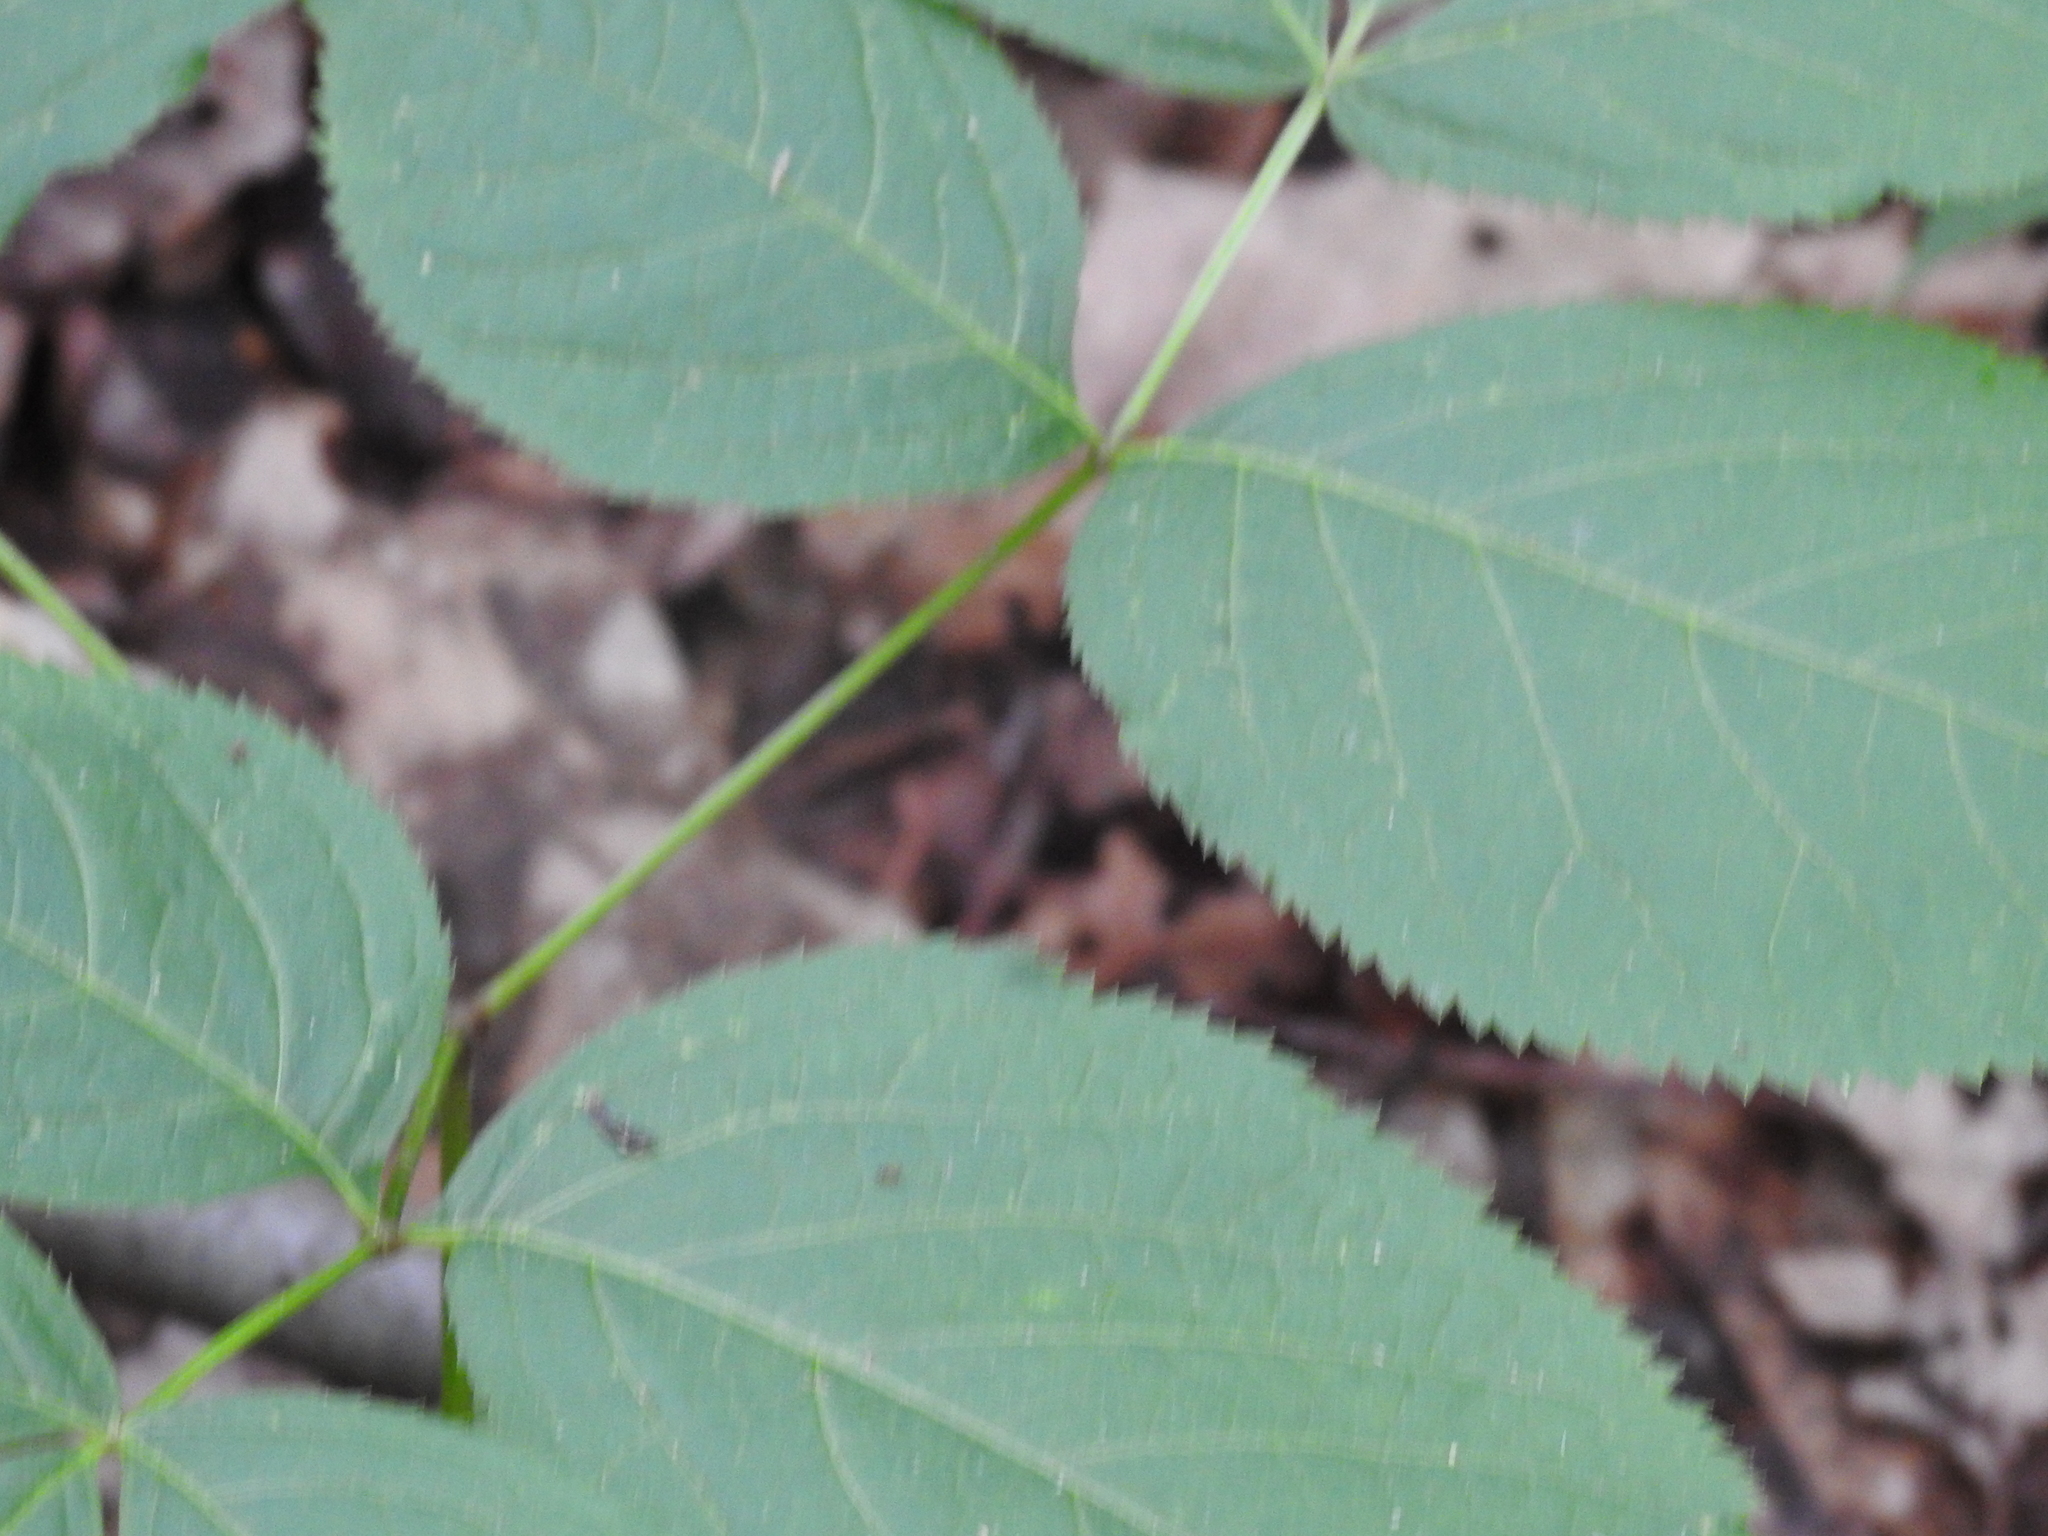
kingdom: Plantae
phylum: Tracheophyta
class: Magnoliopsida
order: Apiales
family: Araliaceae
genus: Aralia
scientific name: Aralia nudicaulis
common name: Wild sarsaparilla
